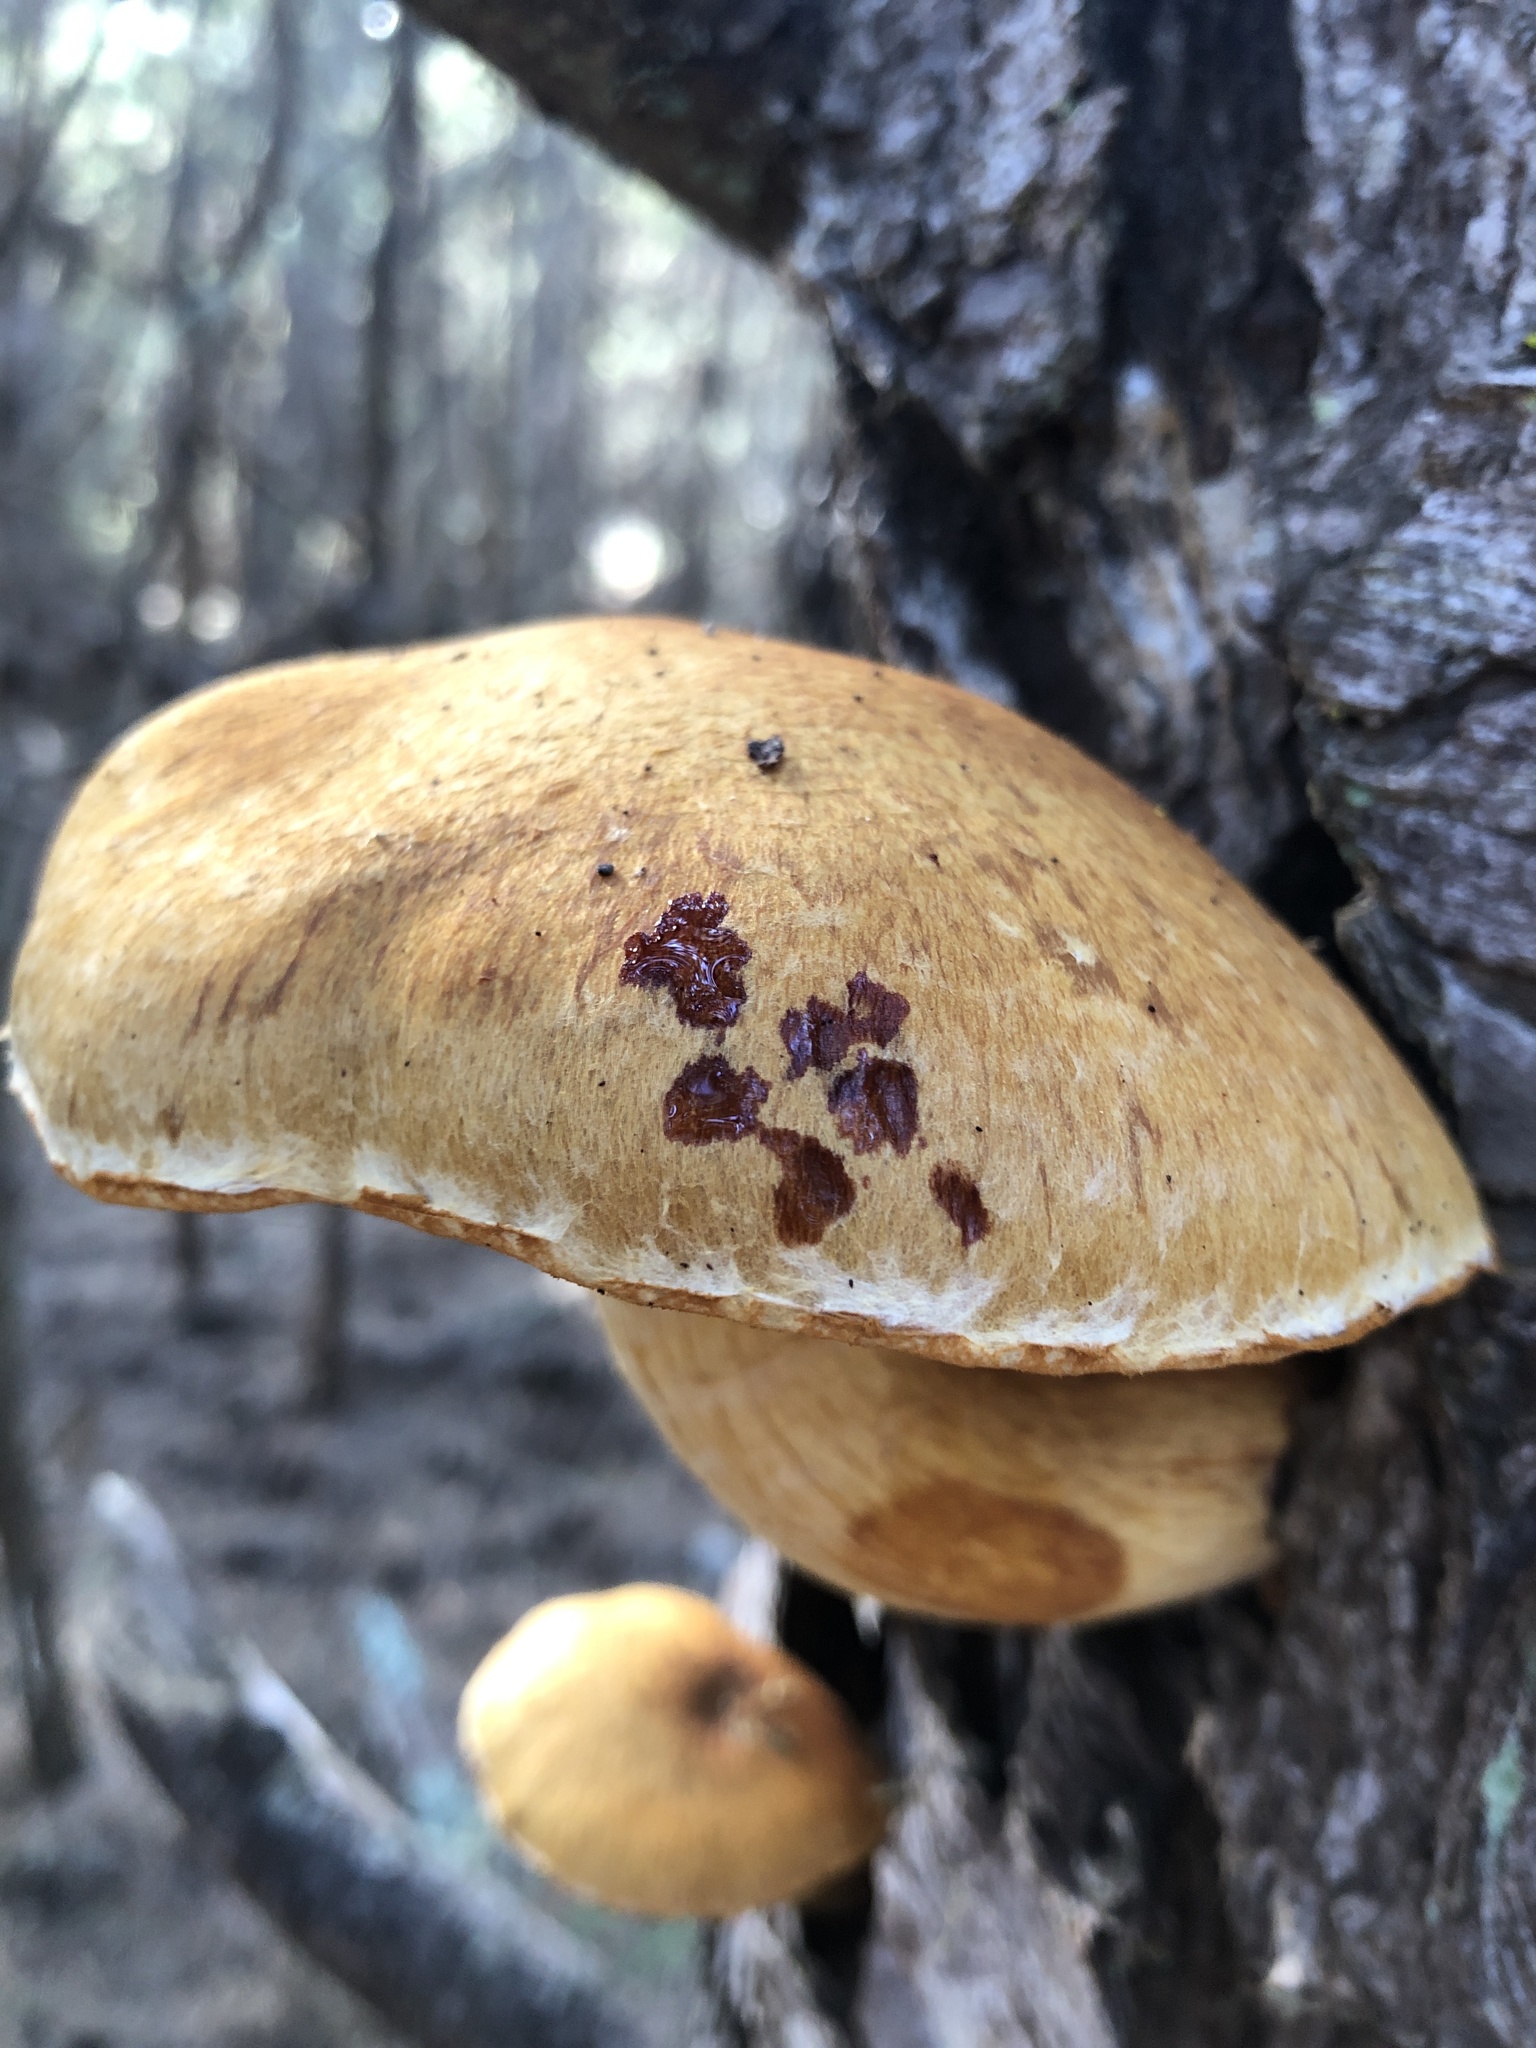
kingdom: Fungi
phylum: Basidiomycota
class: Agaricomycetes
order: Agaricales
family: Hymenogastraceae
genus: Gymnopilus
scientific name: Gymnopilus ventricosus
